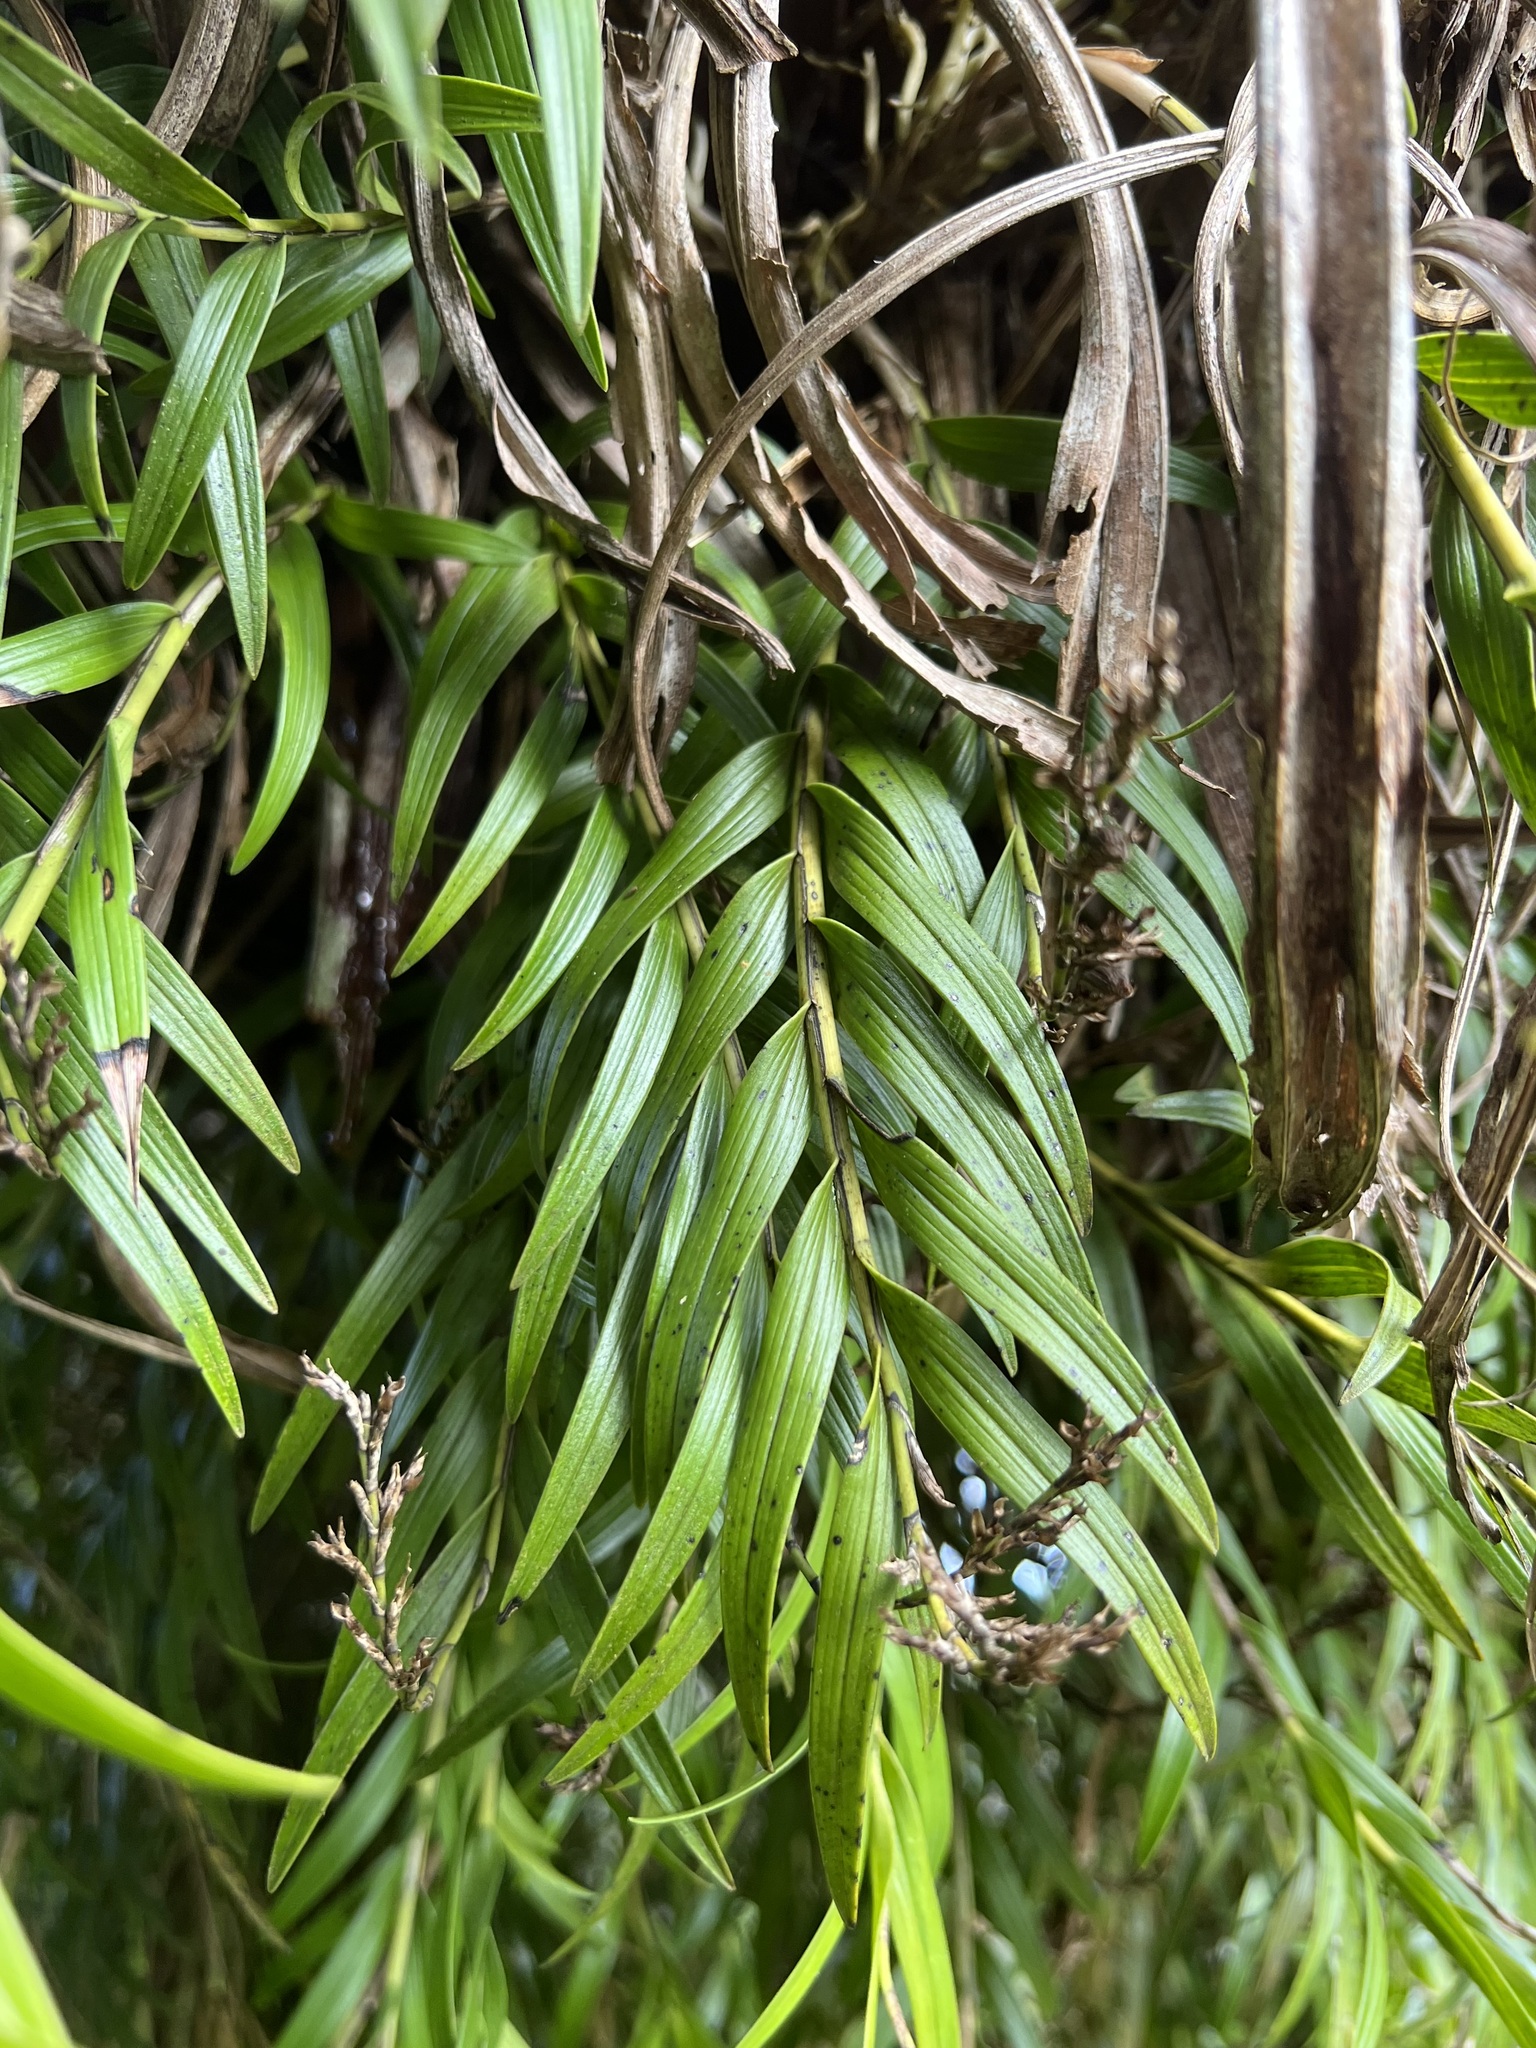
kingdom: Plantae
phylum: Tracheophyta
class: Liliopsida
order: Asparagales
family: Orchidaceae
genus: Earina
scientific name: Earina autumnalis
